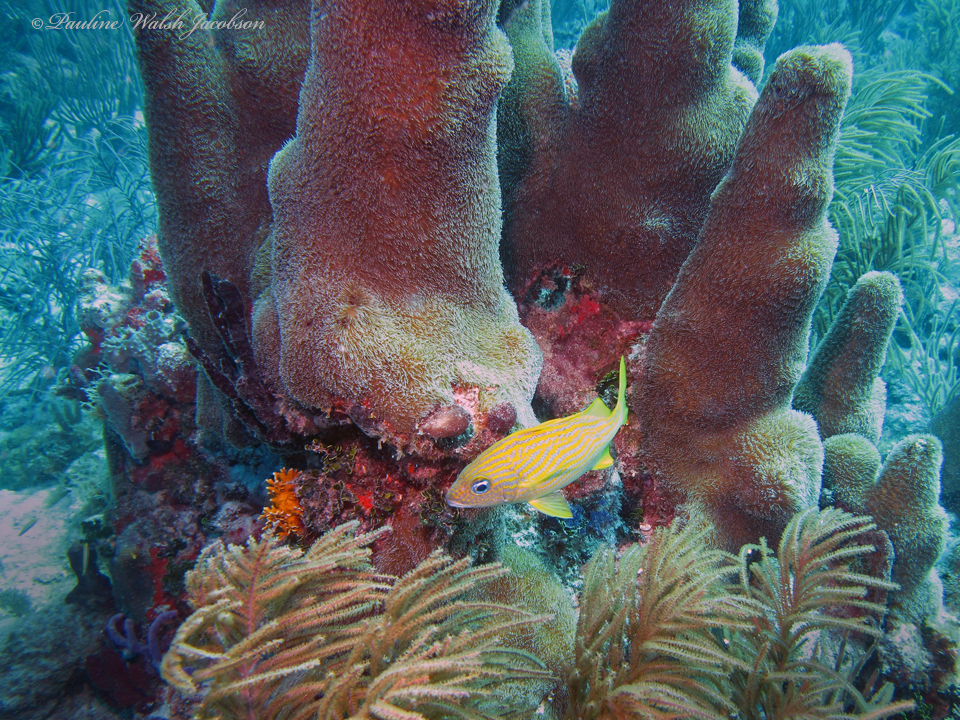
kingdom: Animalia
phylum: Chordata
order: Perciformes
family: Haemulidae
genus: Haemulon
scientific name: Haemulon flavolineatum
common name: French grunt
